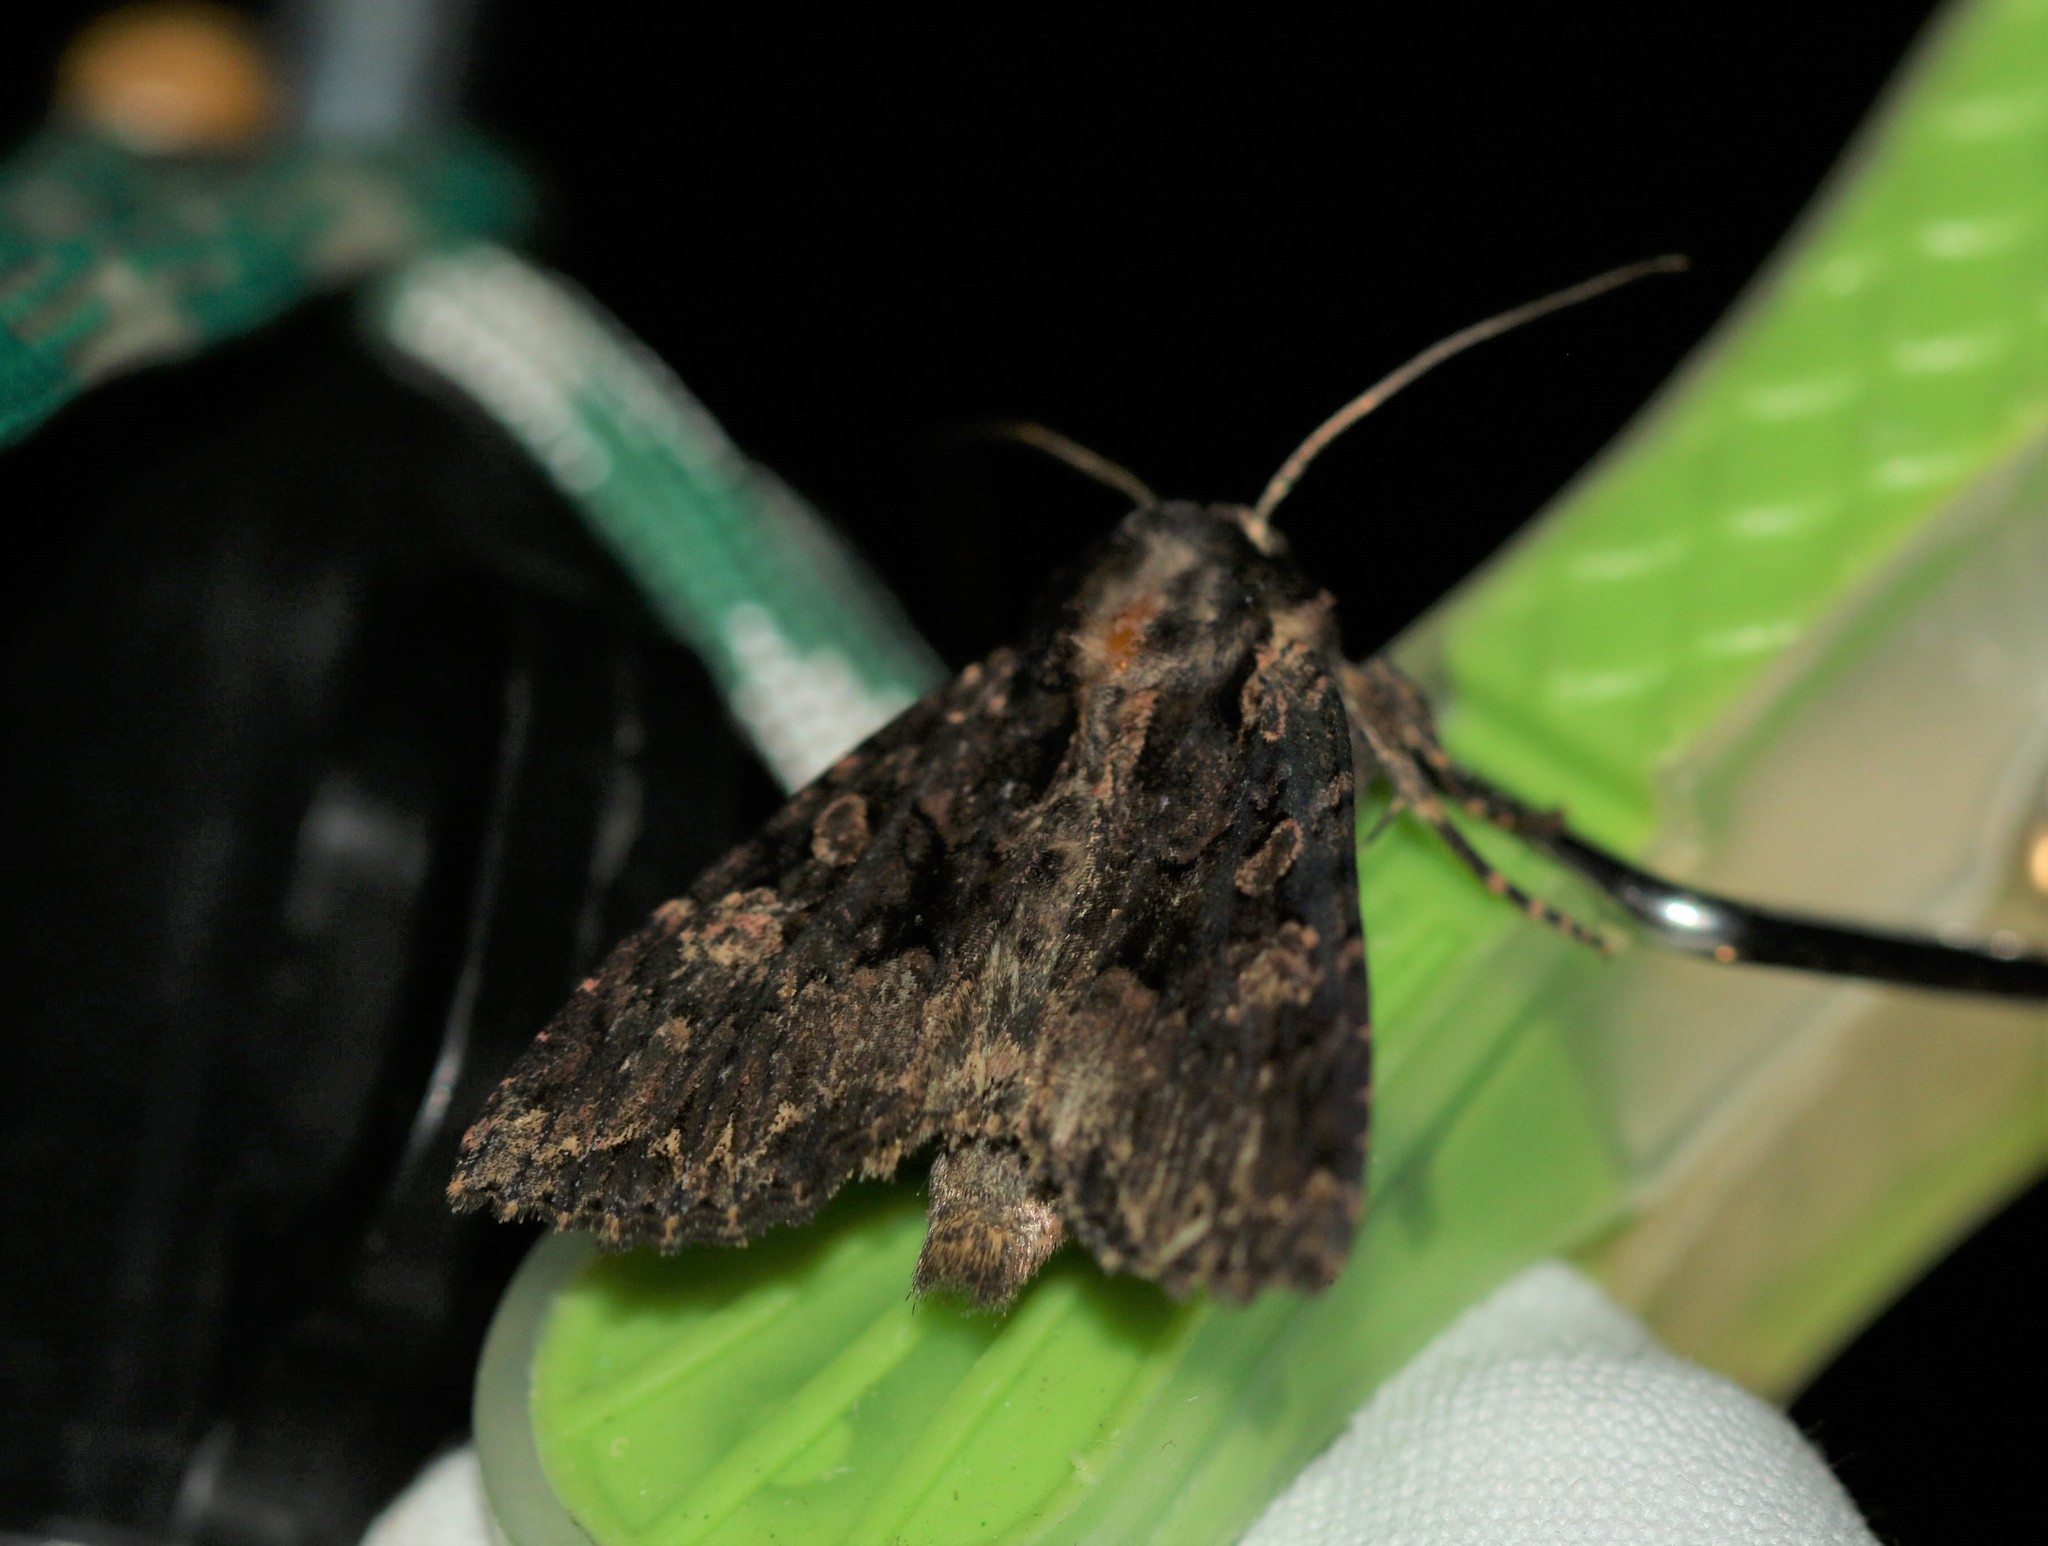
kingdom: Animalia
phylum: Arthropoda
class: Insecta
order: Lepidoptera
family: Noctuidae
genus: Mniotype
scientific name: Mniotype satura
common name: Beautiful arches
